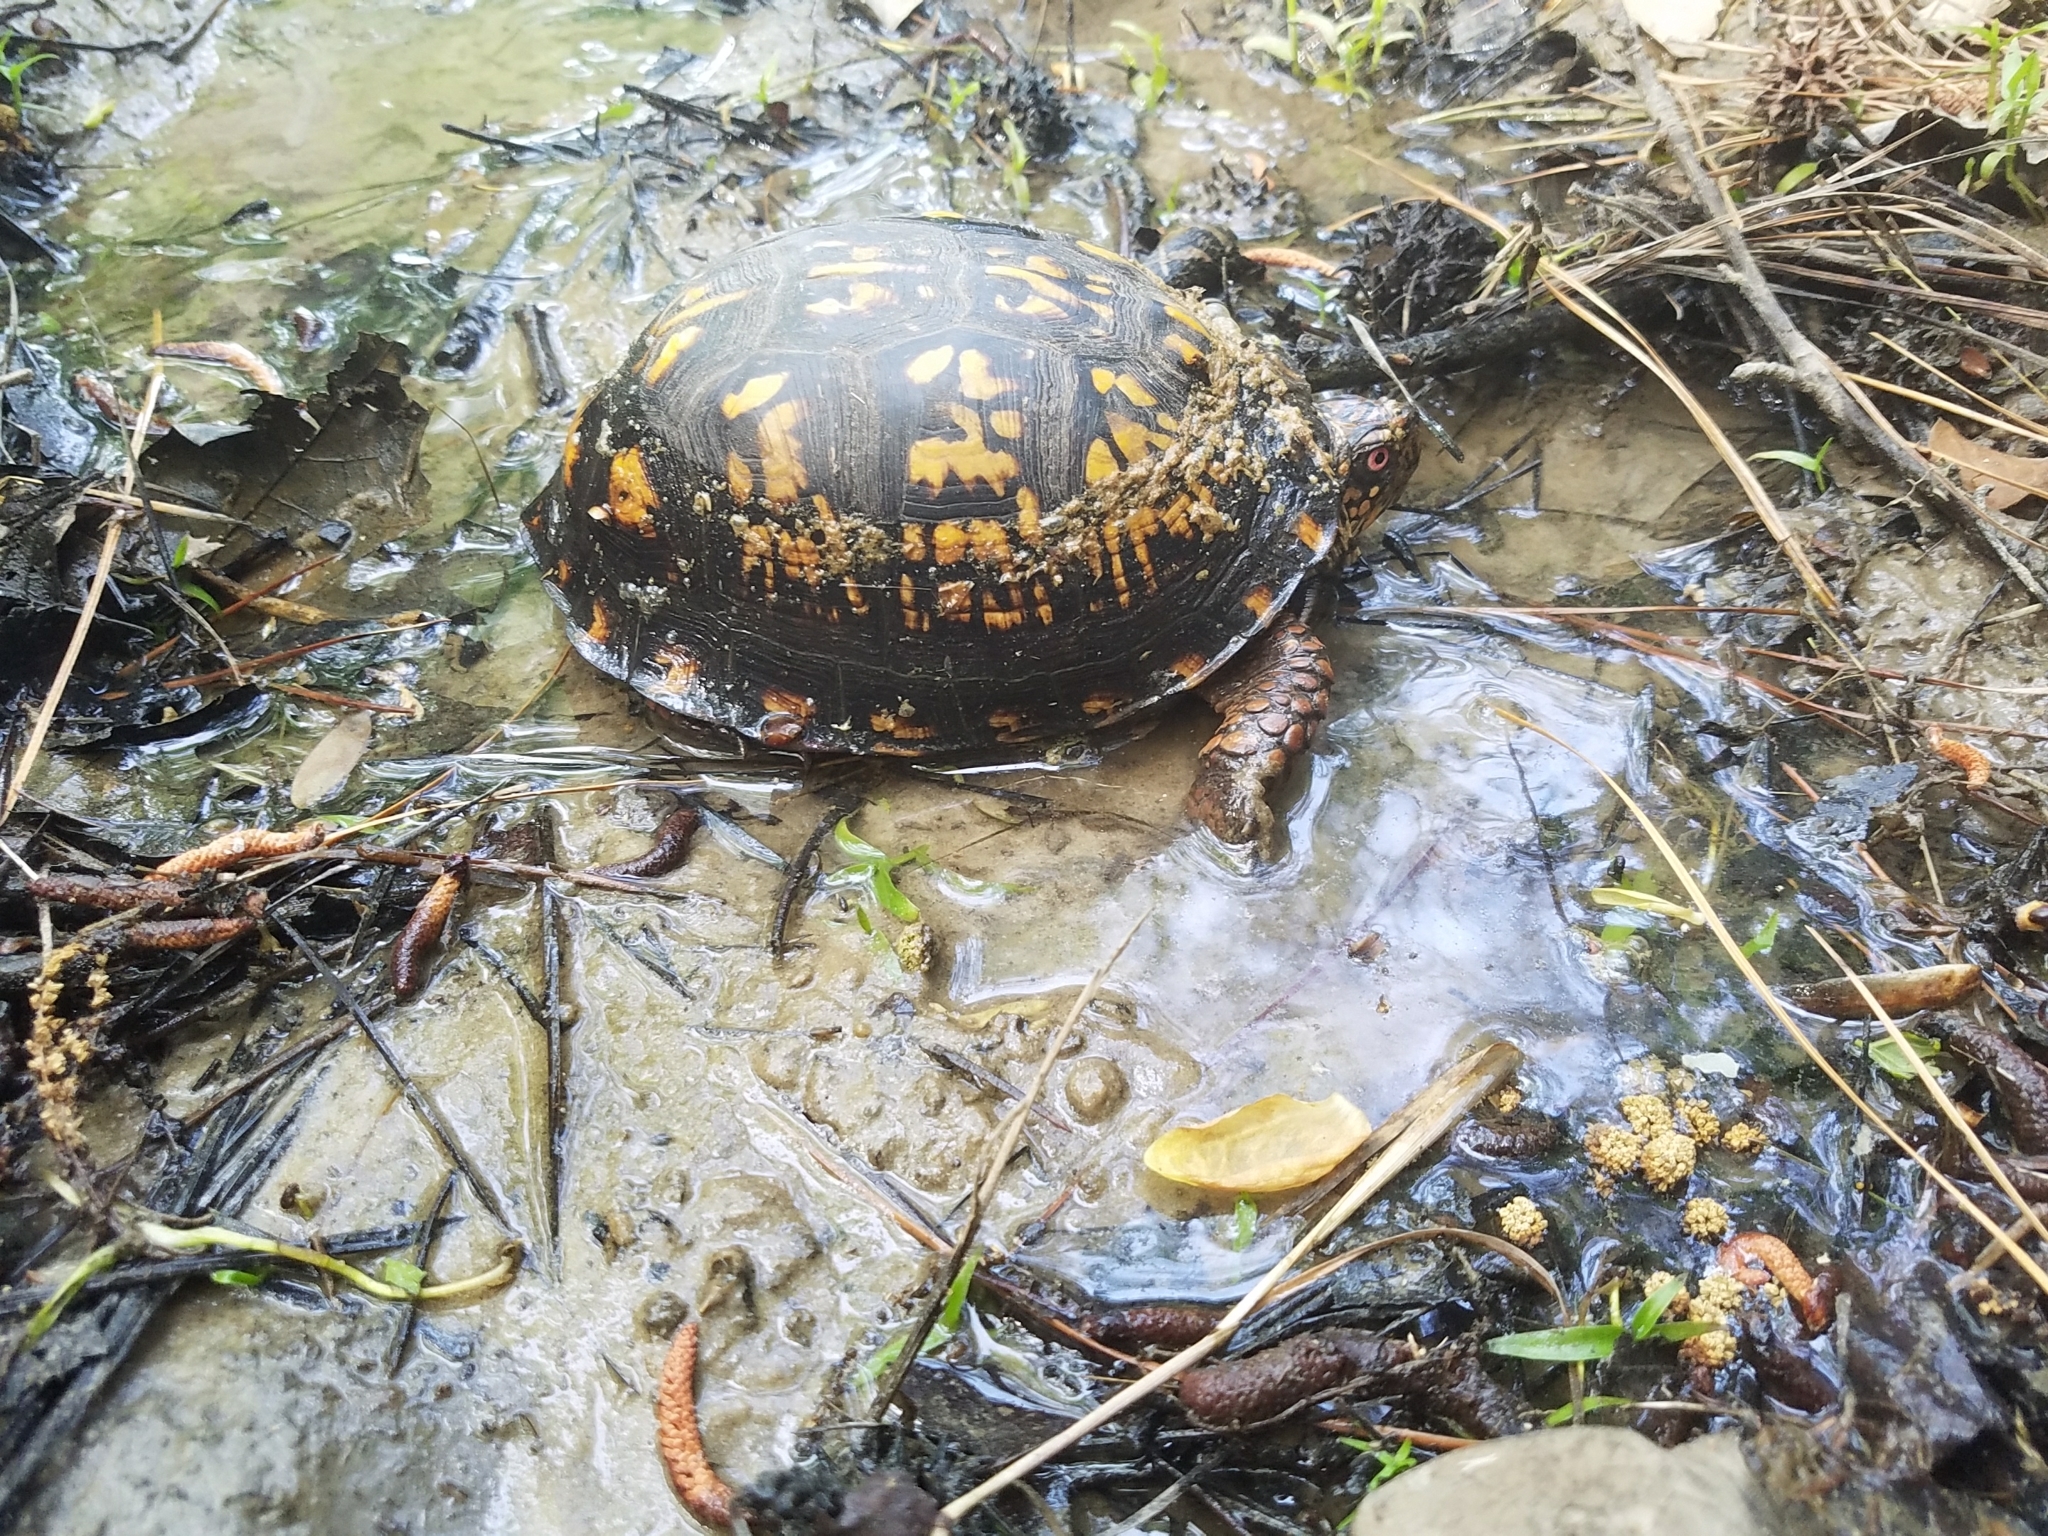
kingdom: Animalia
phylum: Chordata
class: Testudines
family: Emydidae
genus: Terrapene
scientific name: Terrapene carolina
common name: Common box turtle
